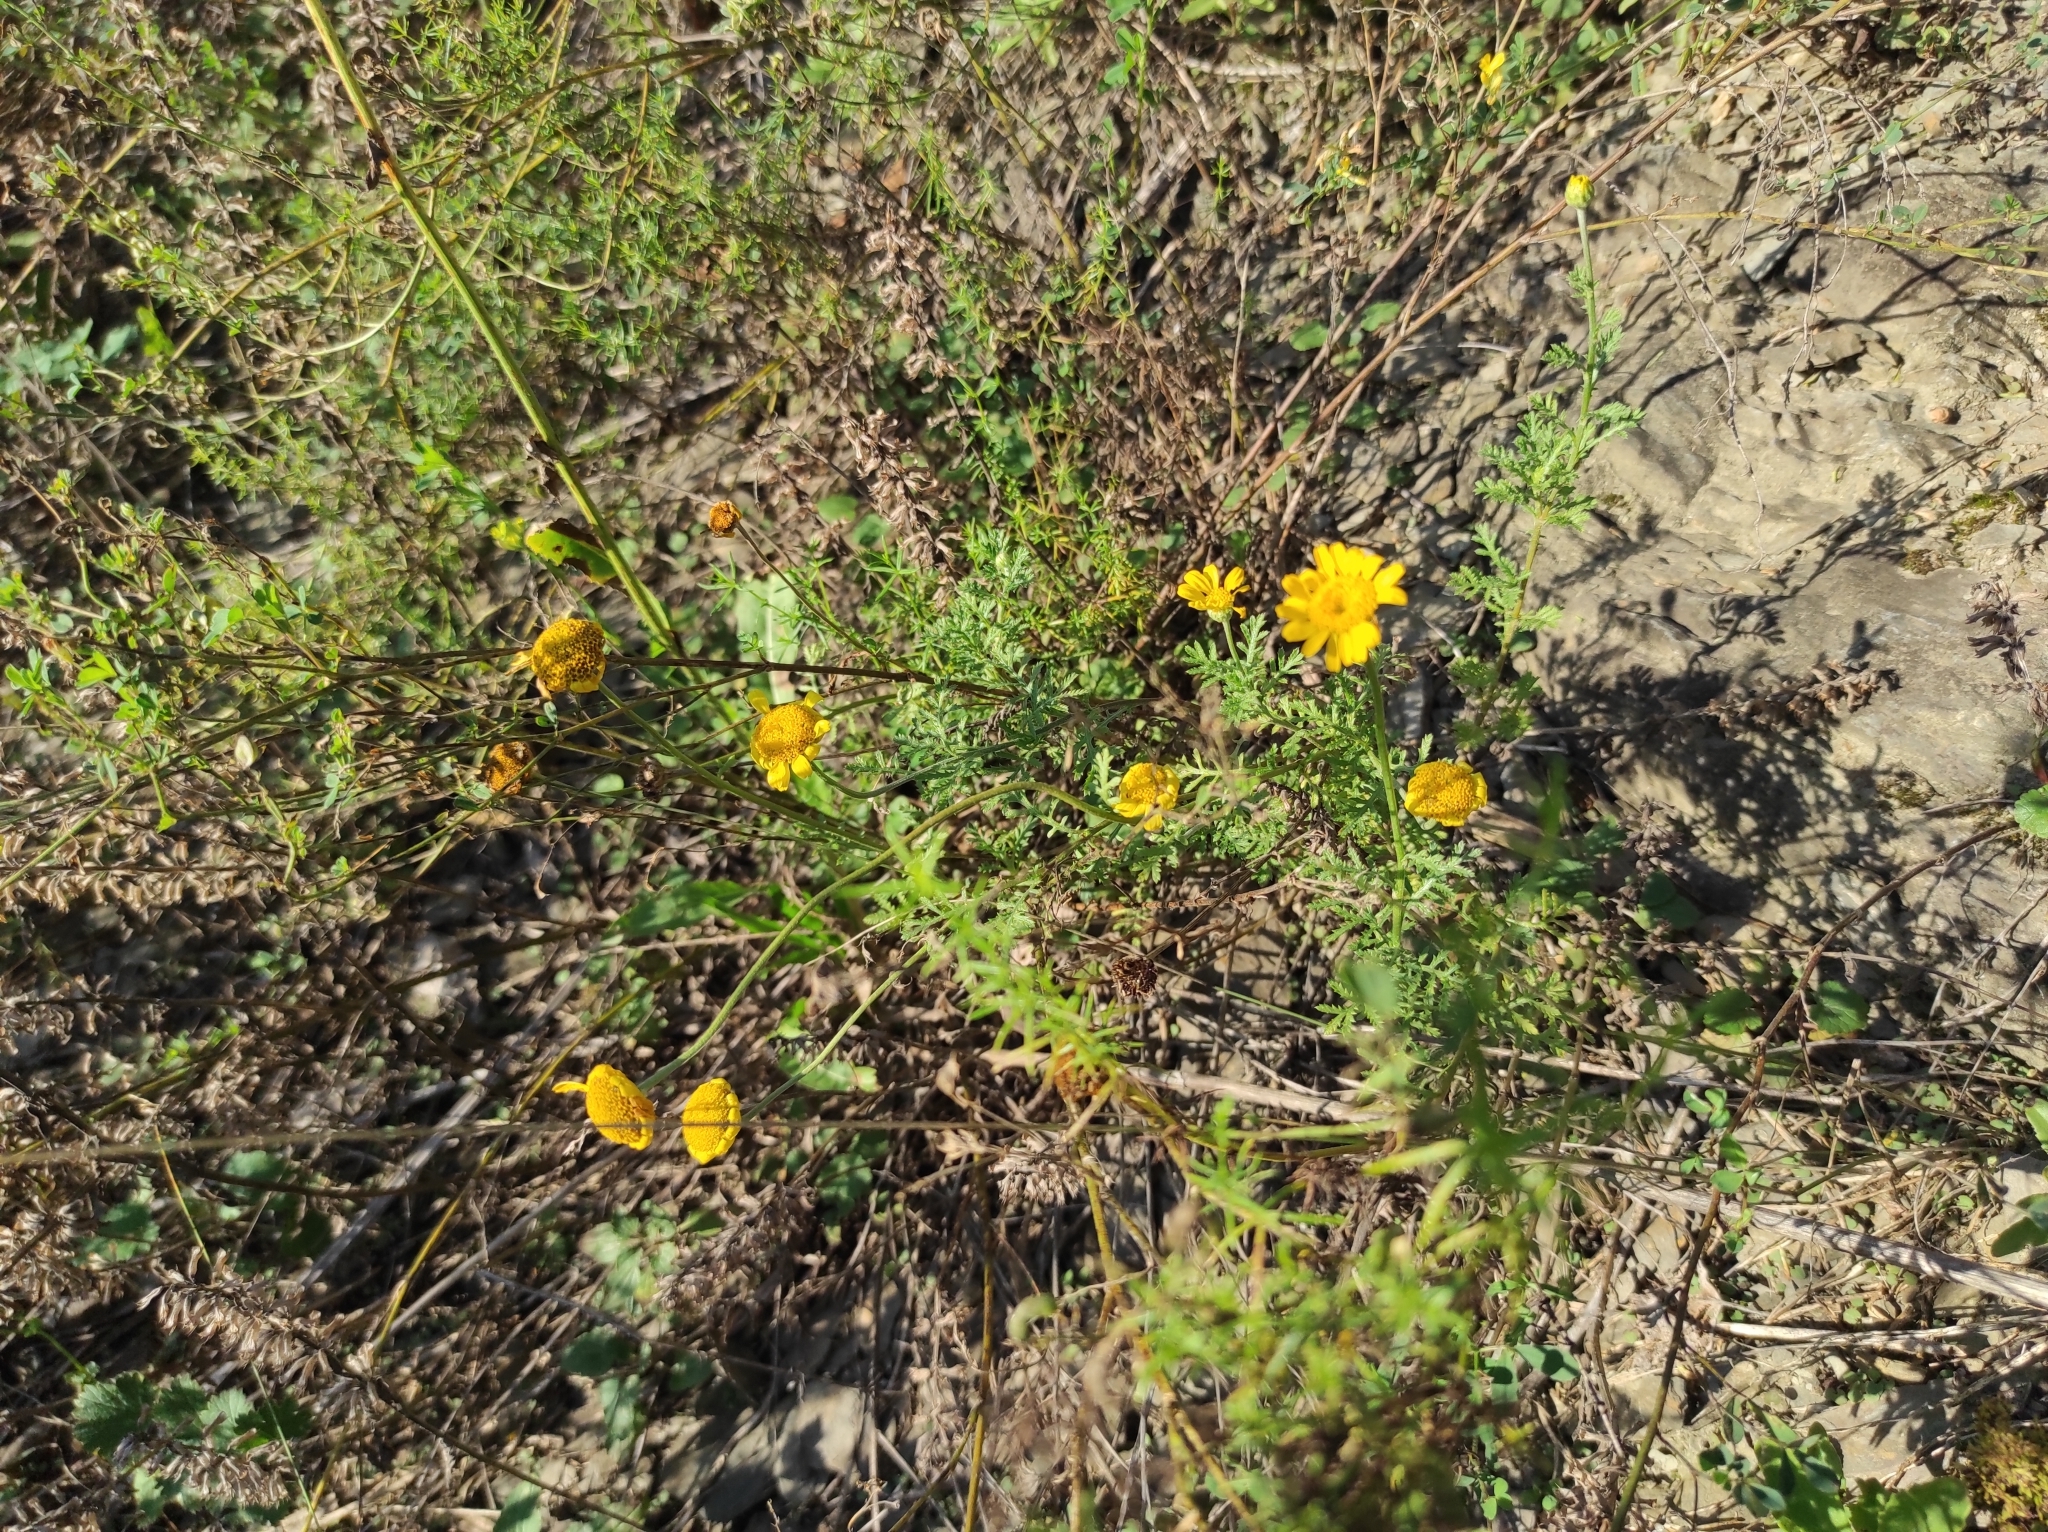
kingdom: Plantae
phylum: Tracheophyta
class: Magnoliopsida
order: Asterales
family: Asteraceae
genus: Cota
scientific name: Cota tinctoria
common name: Golden chamomile
